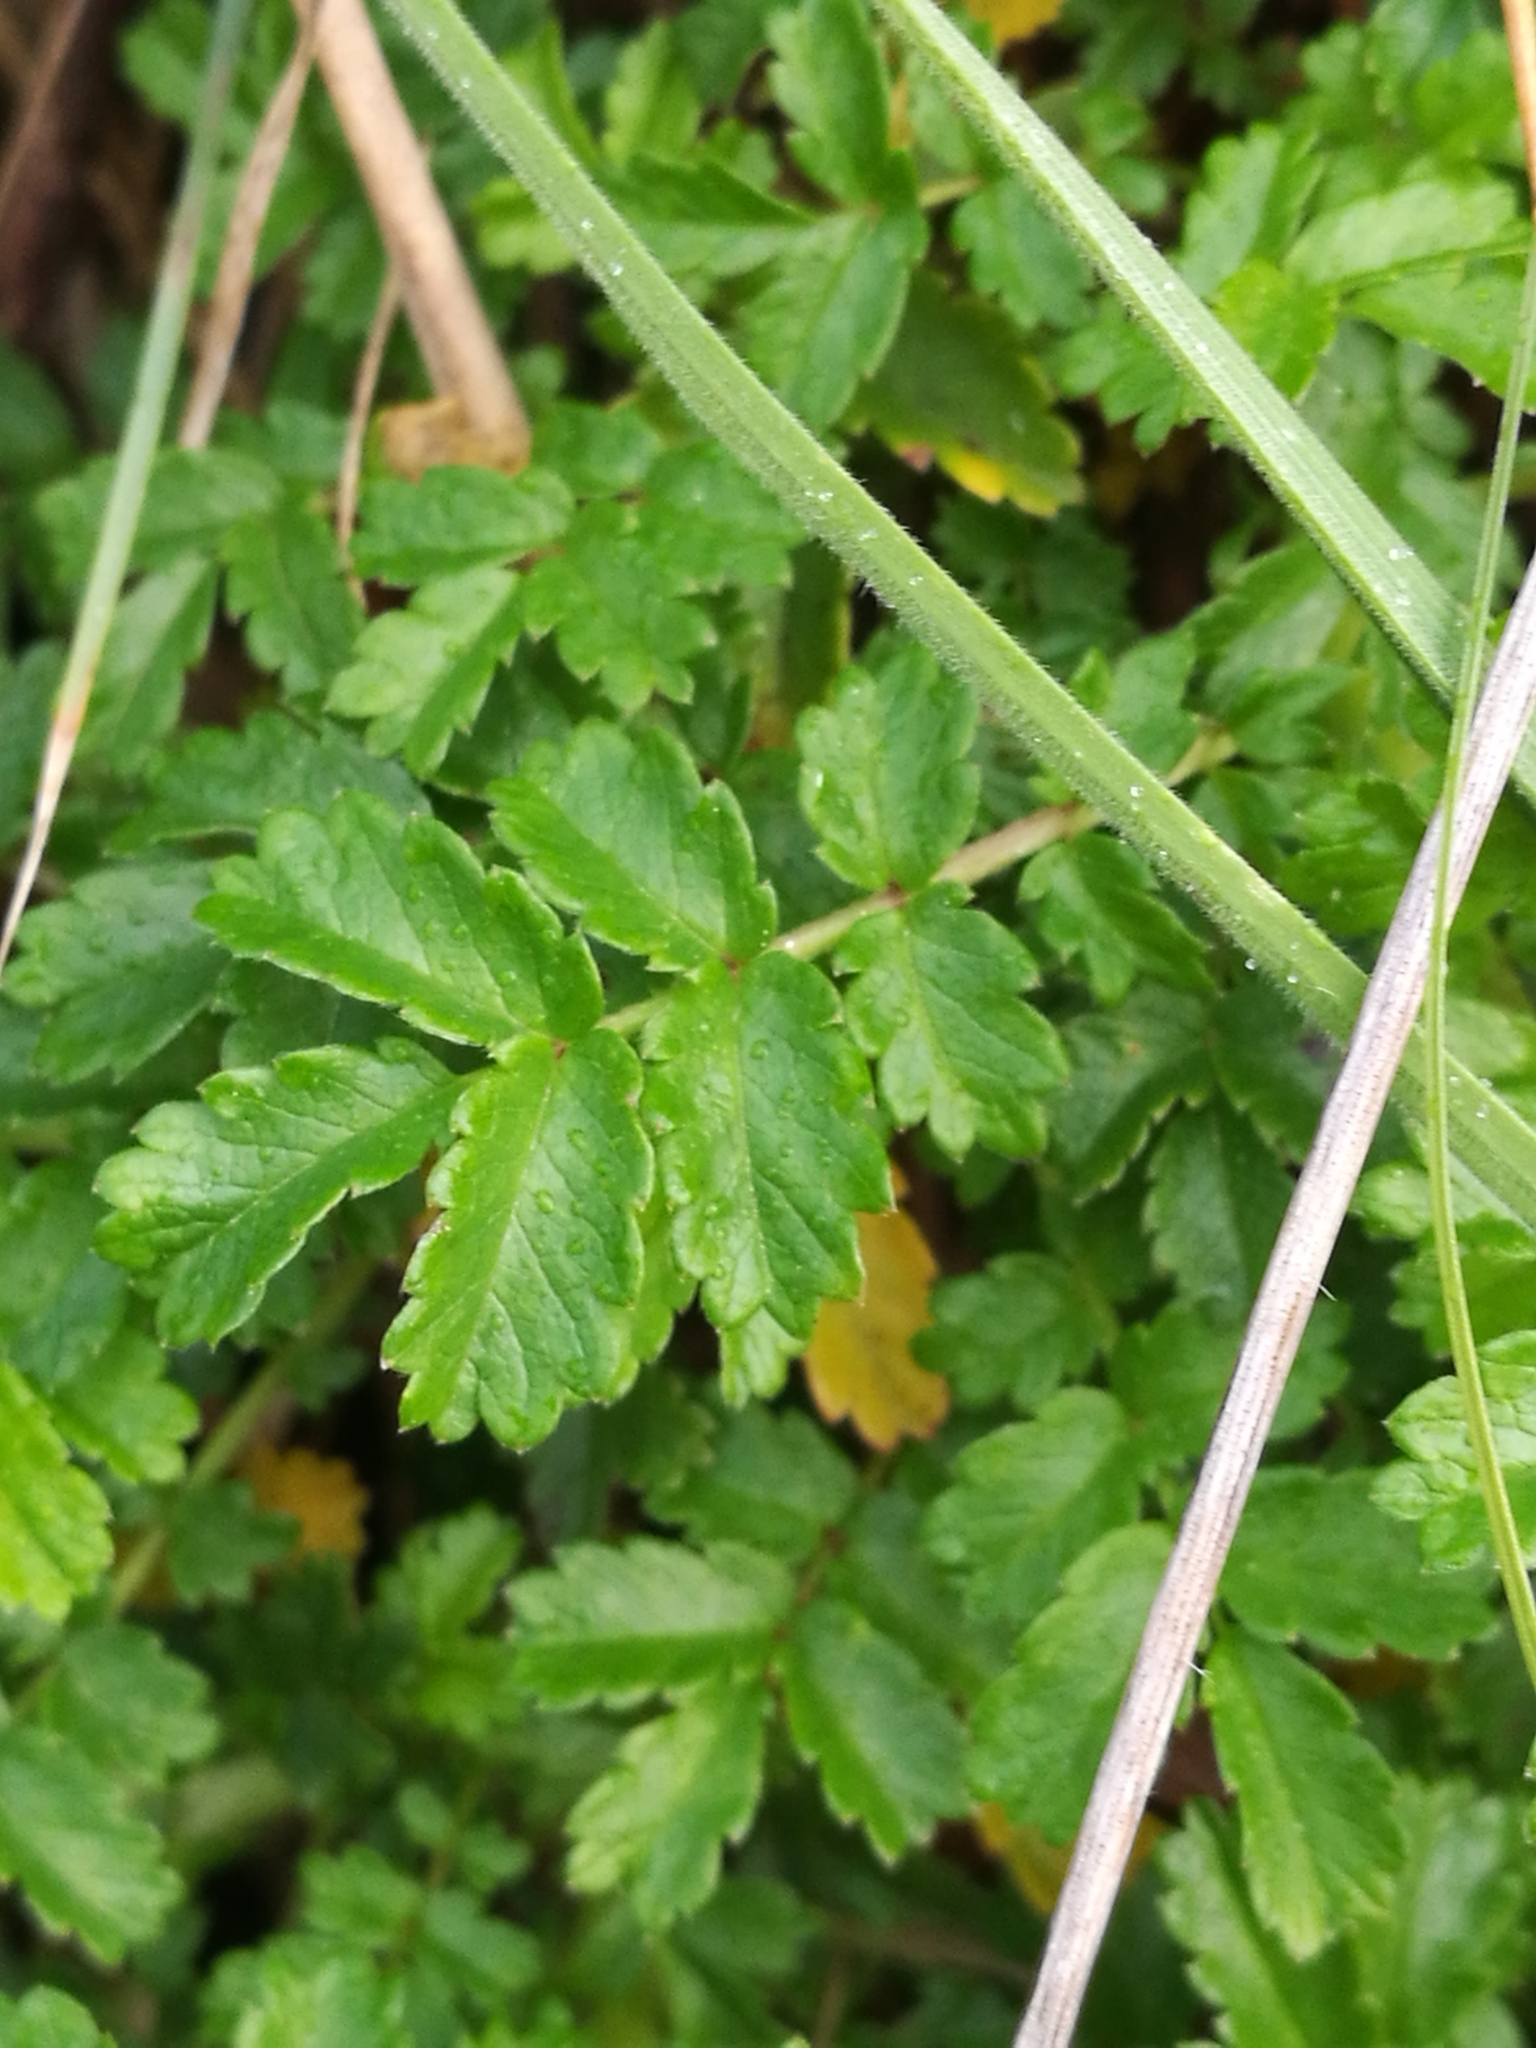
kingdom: Plantae
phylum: Tracheophyta
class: Magnoliopsida
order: Rosales
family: Rosaceae
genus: Acaena
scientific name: Acaena novae-zelandiae
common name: Pirri-pirri-bur
